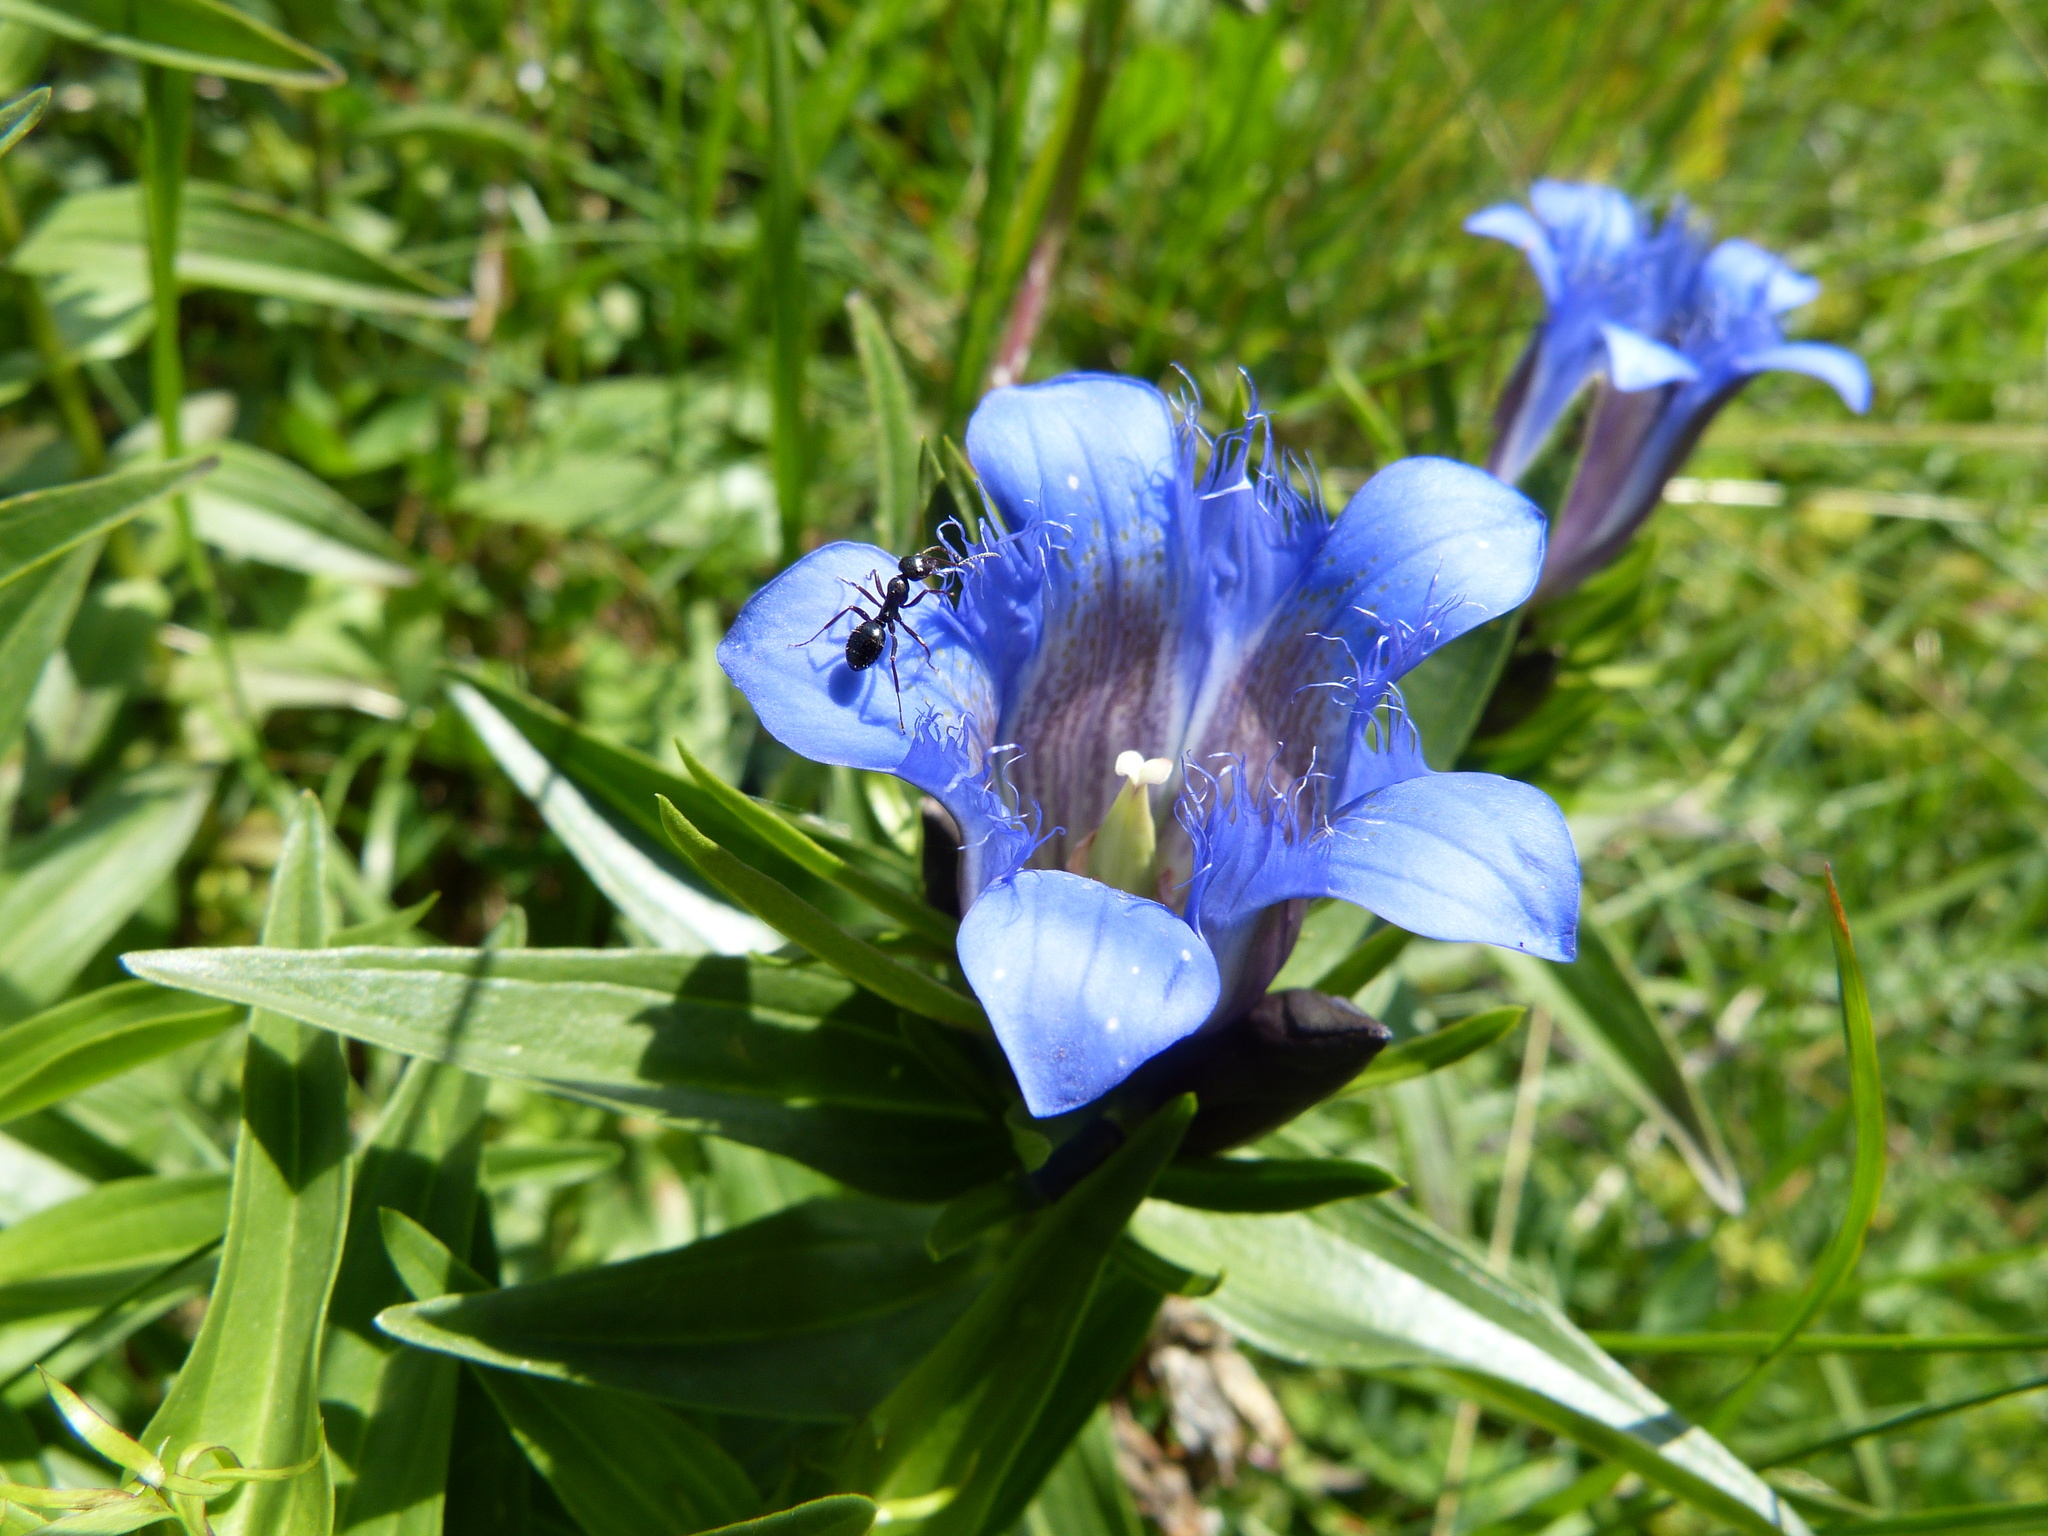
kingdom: Plantae
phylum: Tracheophyta
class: Magnoliopsida
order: Gentianales
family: Gentianaceae
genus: Gentiana
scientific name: Gentiana septemfida
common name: Crested gentian
